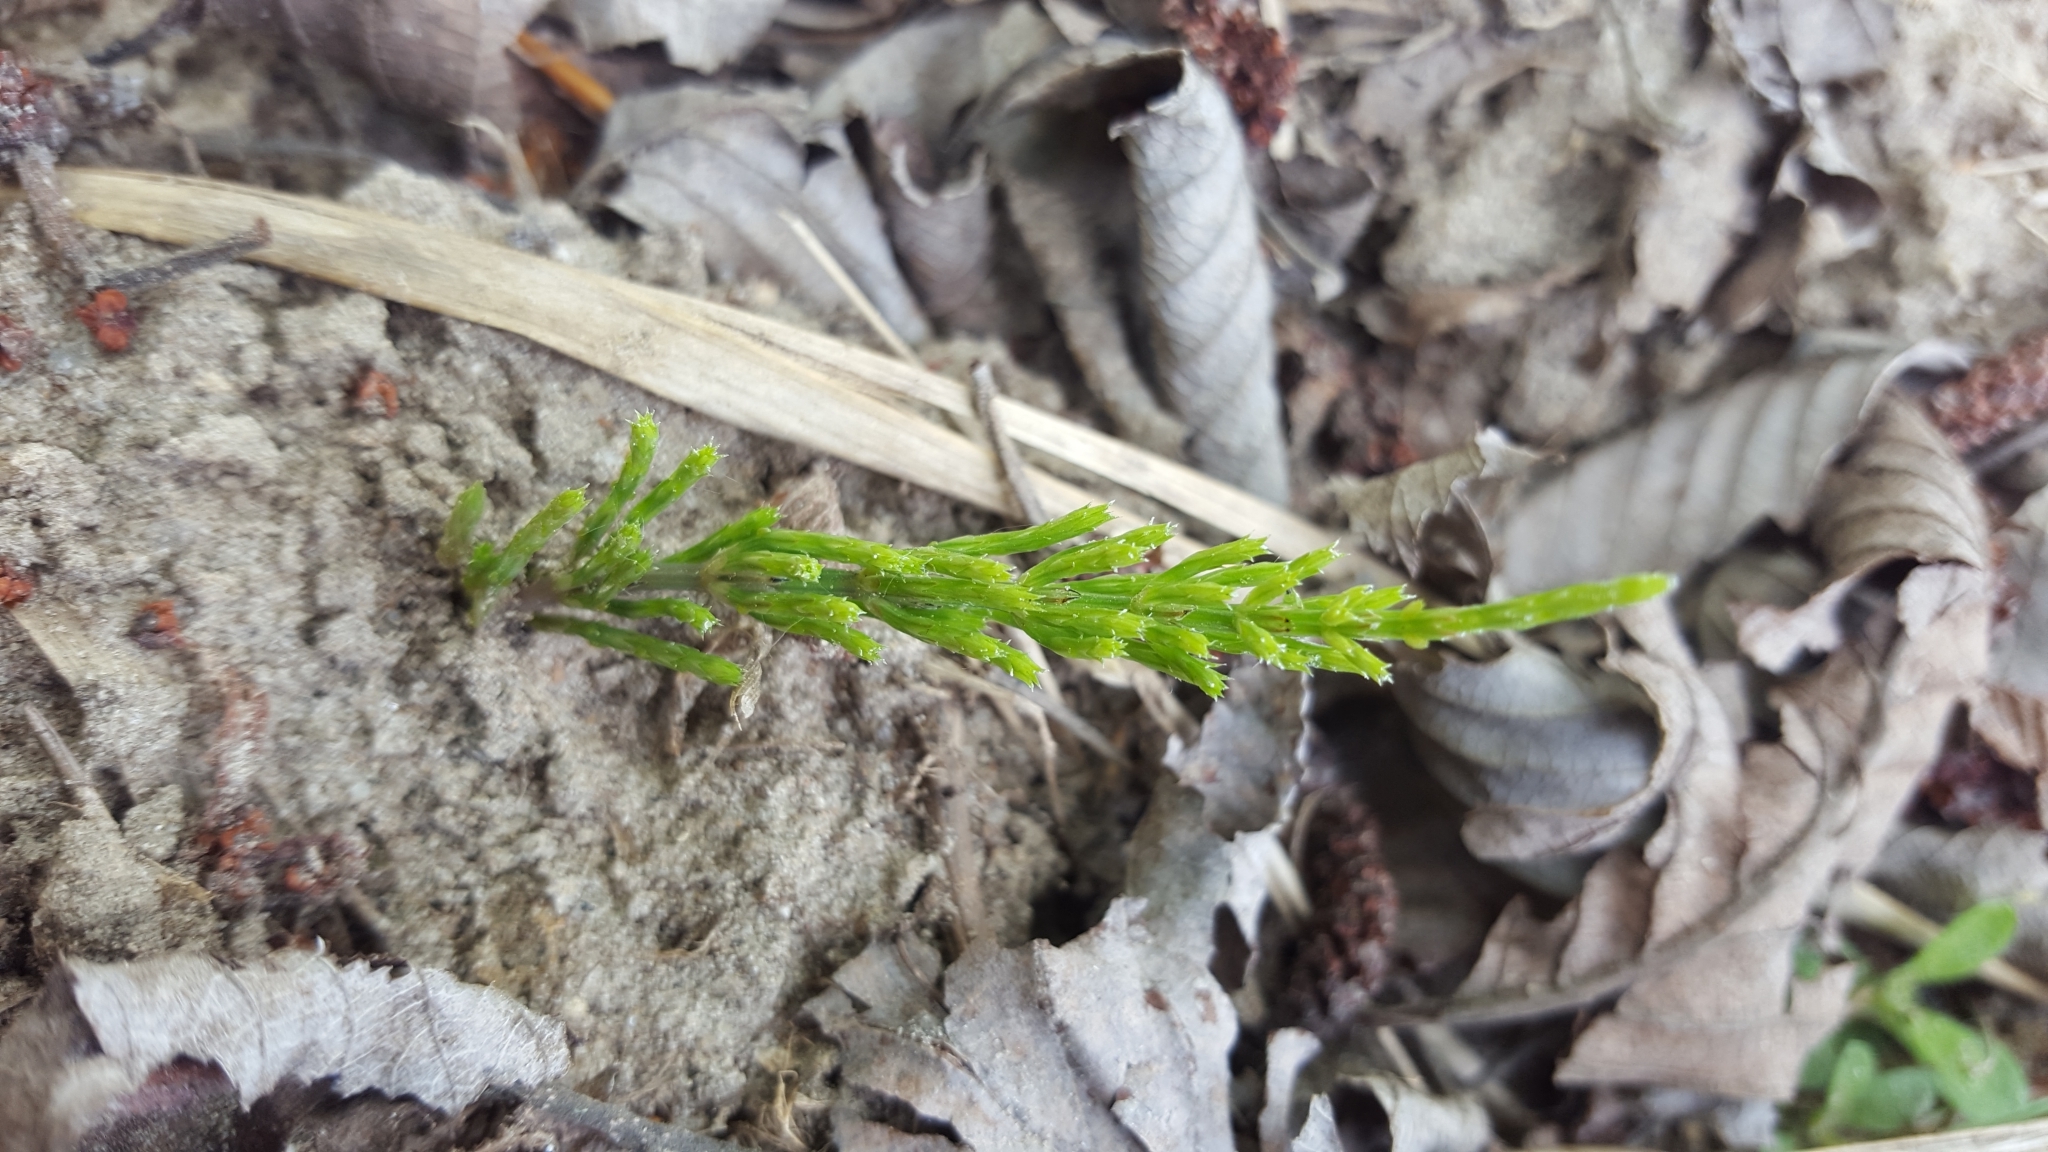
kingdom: Plantae
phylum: Tracheophyta
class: Polypodiopsida
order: Equisetales
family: Equisetaceae
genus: Equisetum
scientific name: Equisetum arvense
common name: Field horsetail
